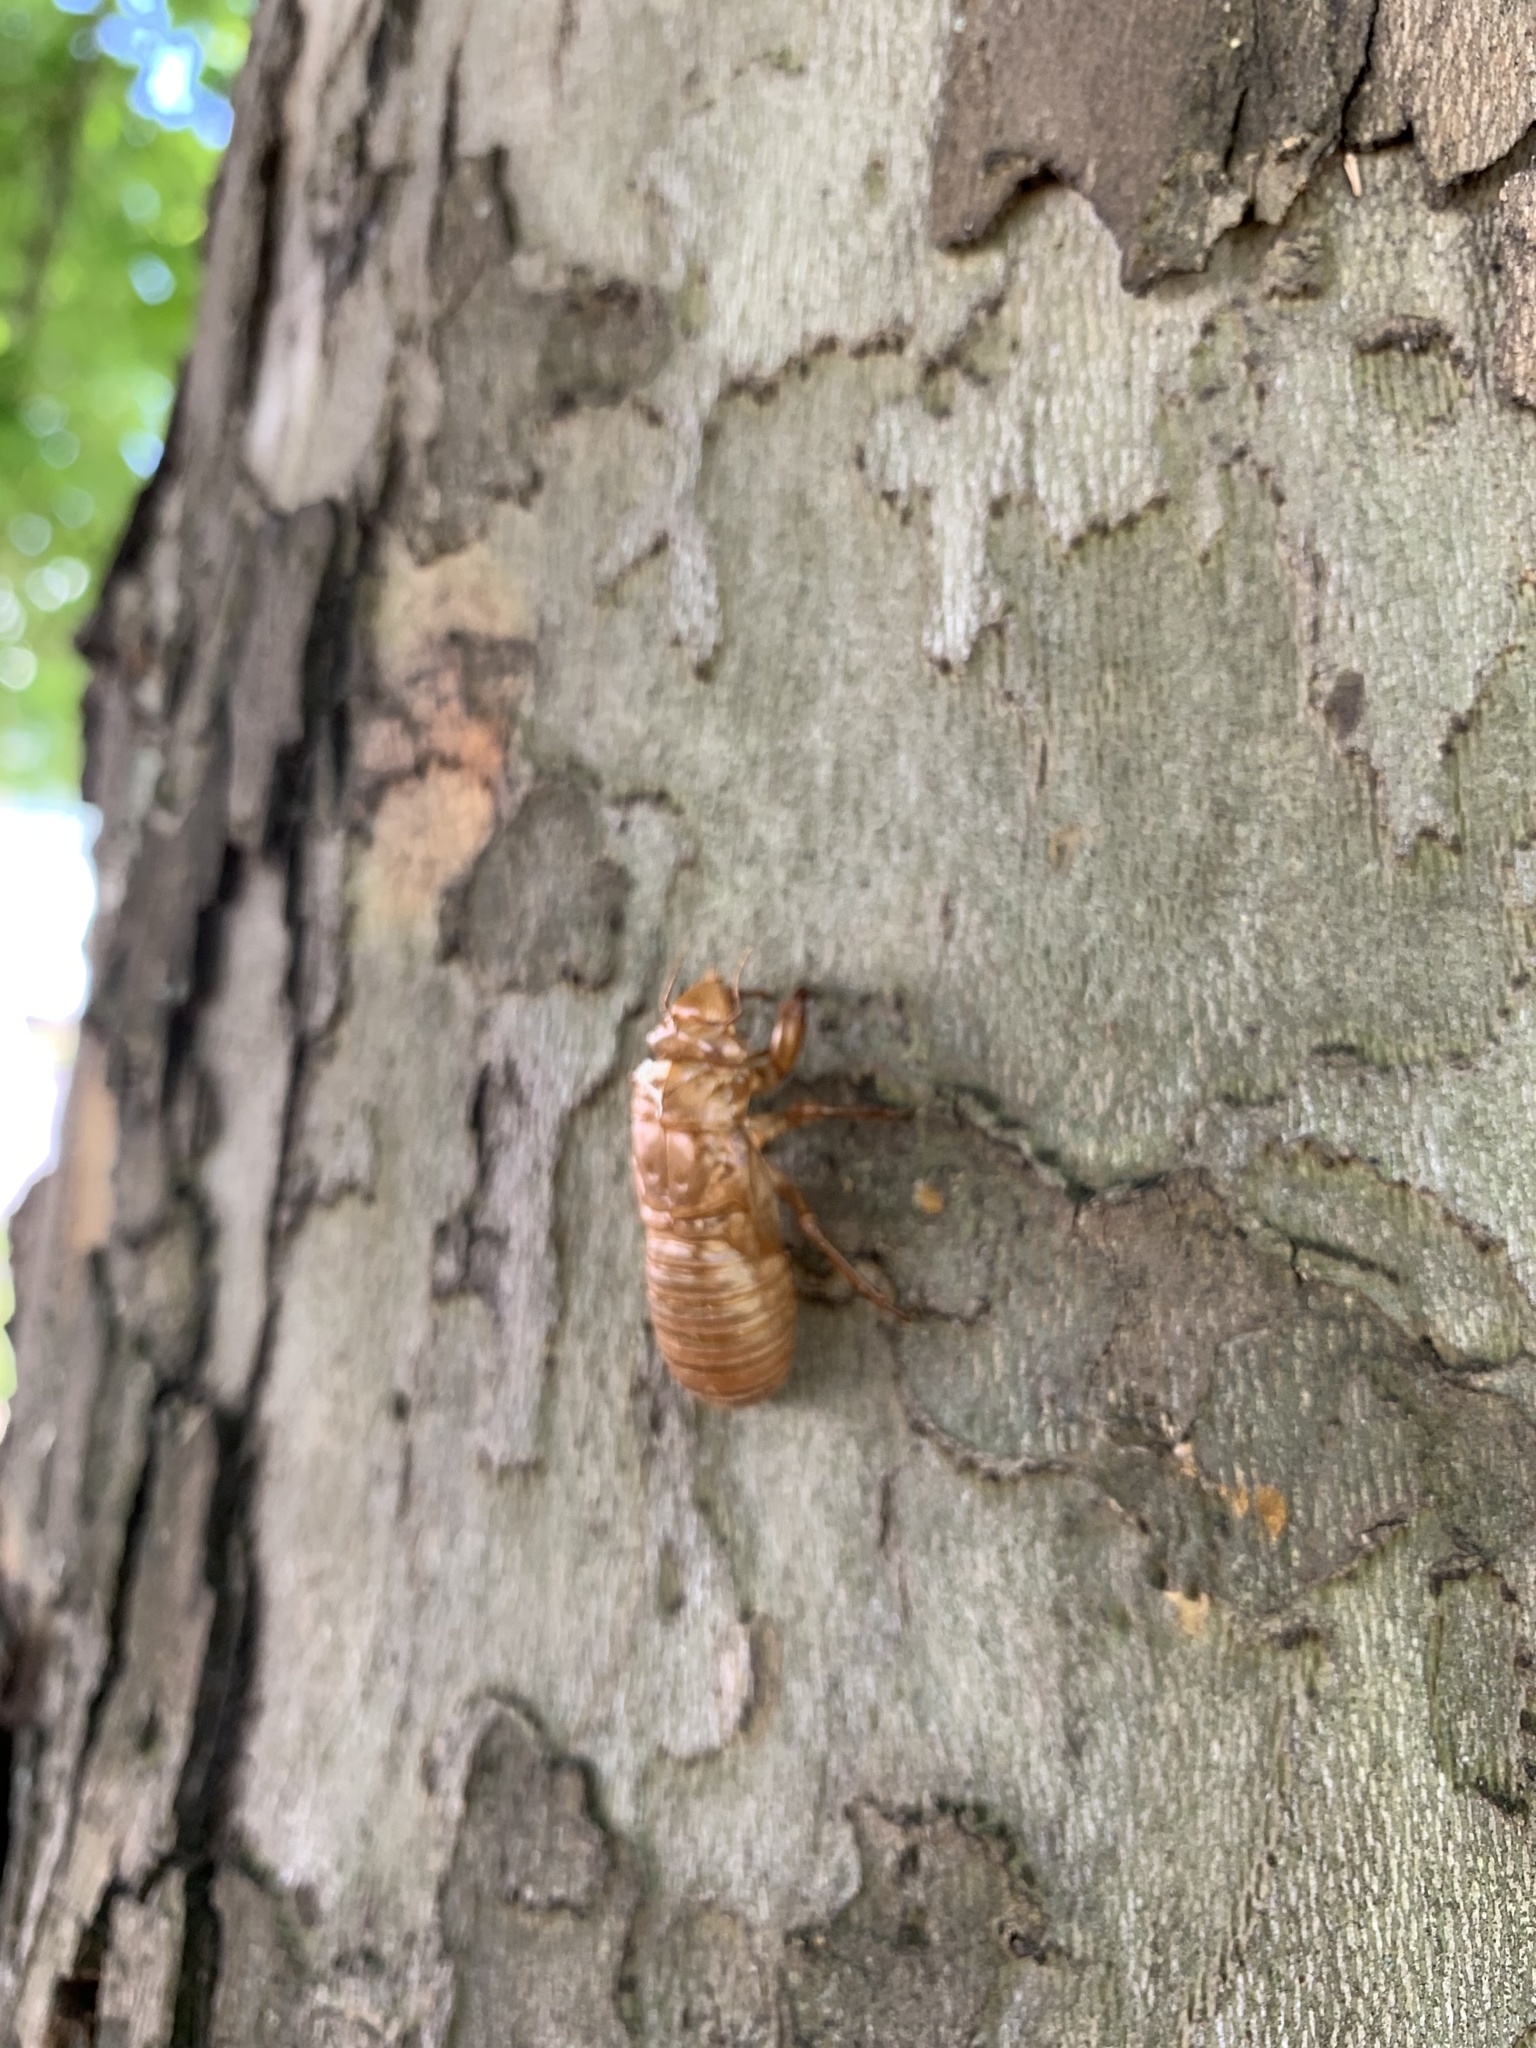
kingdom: Animalia
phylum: Arthropoda
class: Insecta
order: Hemiptera
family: Cicadidae
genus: Magicicada
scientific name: Magicicada
